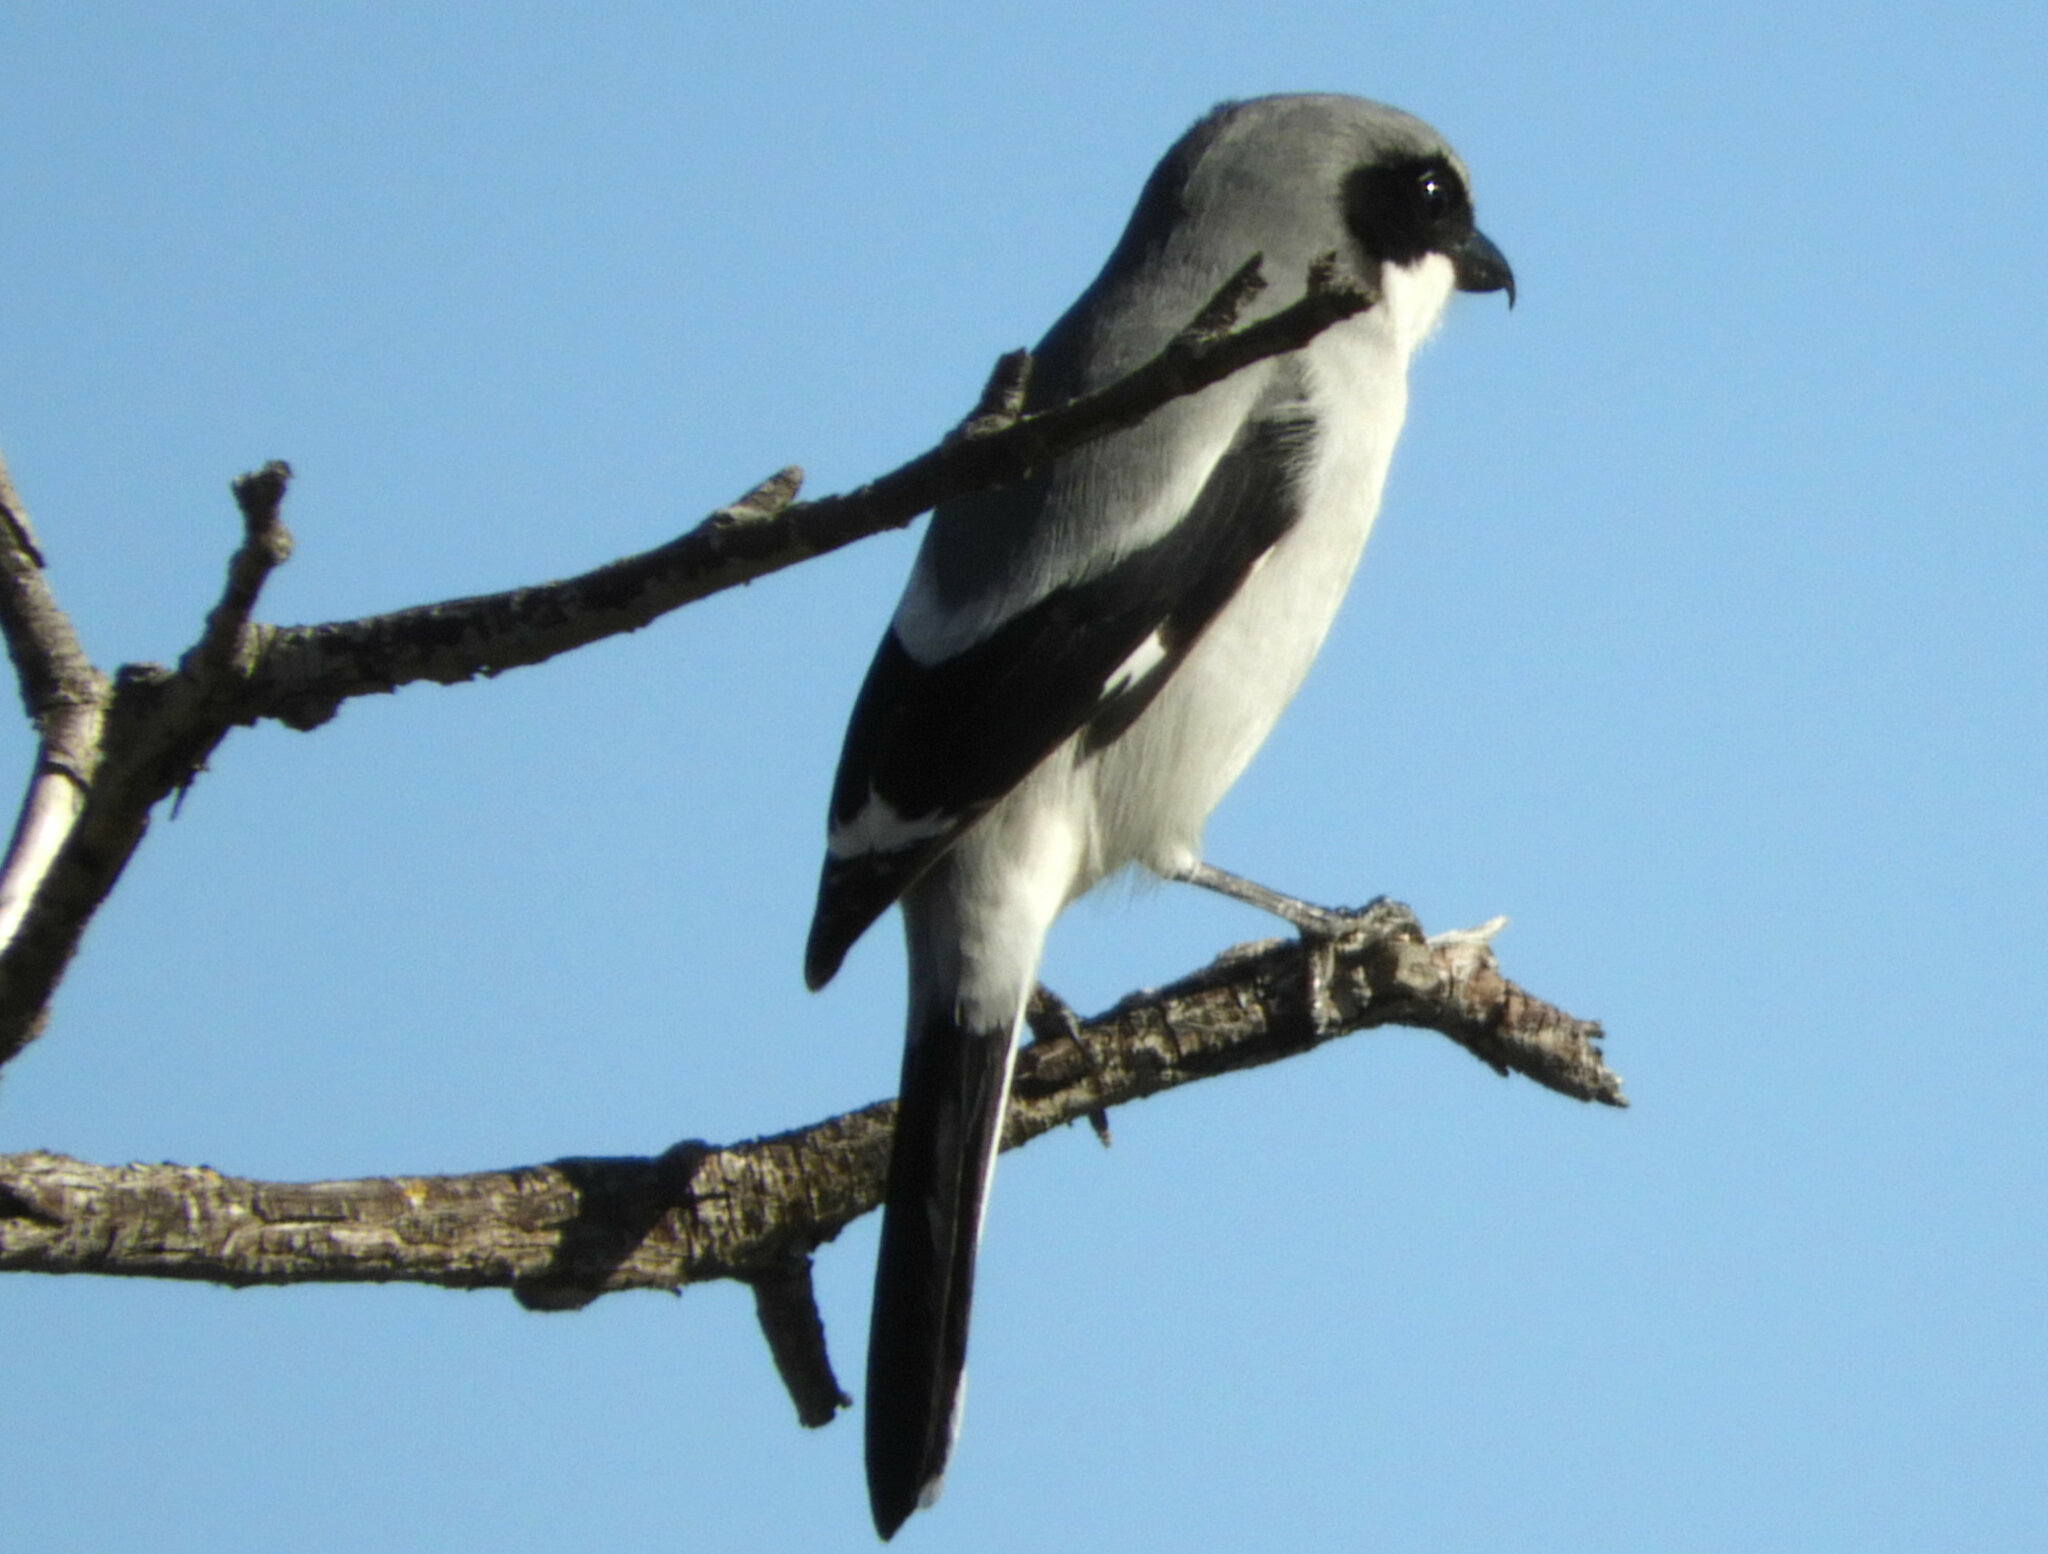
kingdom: Animalia
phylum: Chordata
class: Aves
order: Passeriformes
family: Laniidae
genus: Lanius
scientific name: Lanius ludovicianus
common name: Loggerhead shrike
